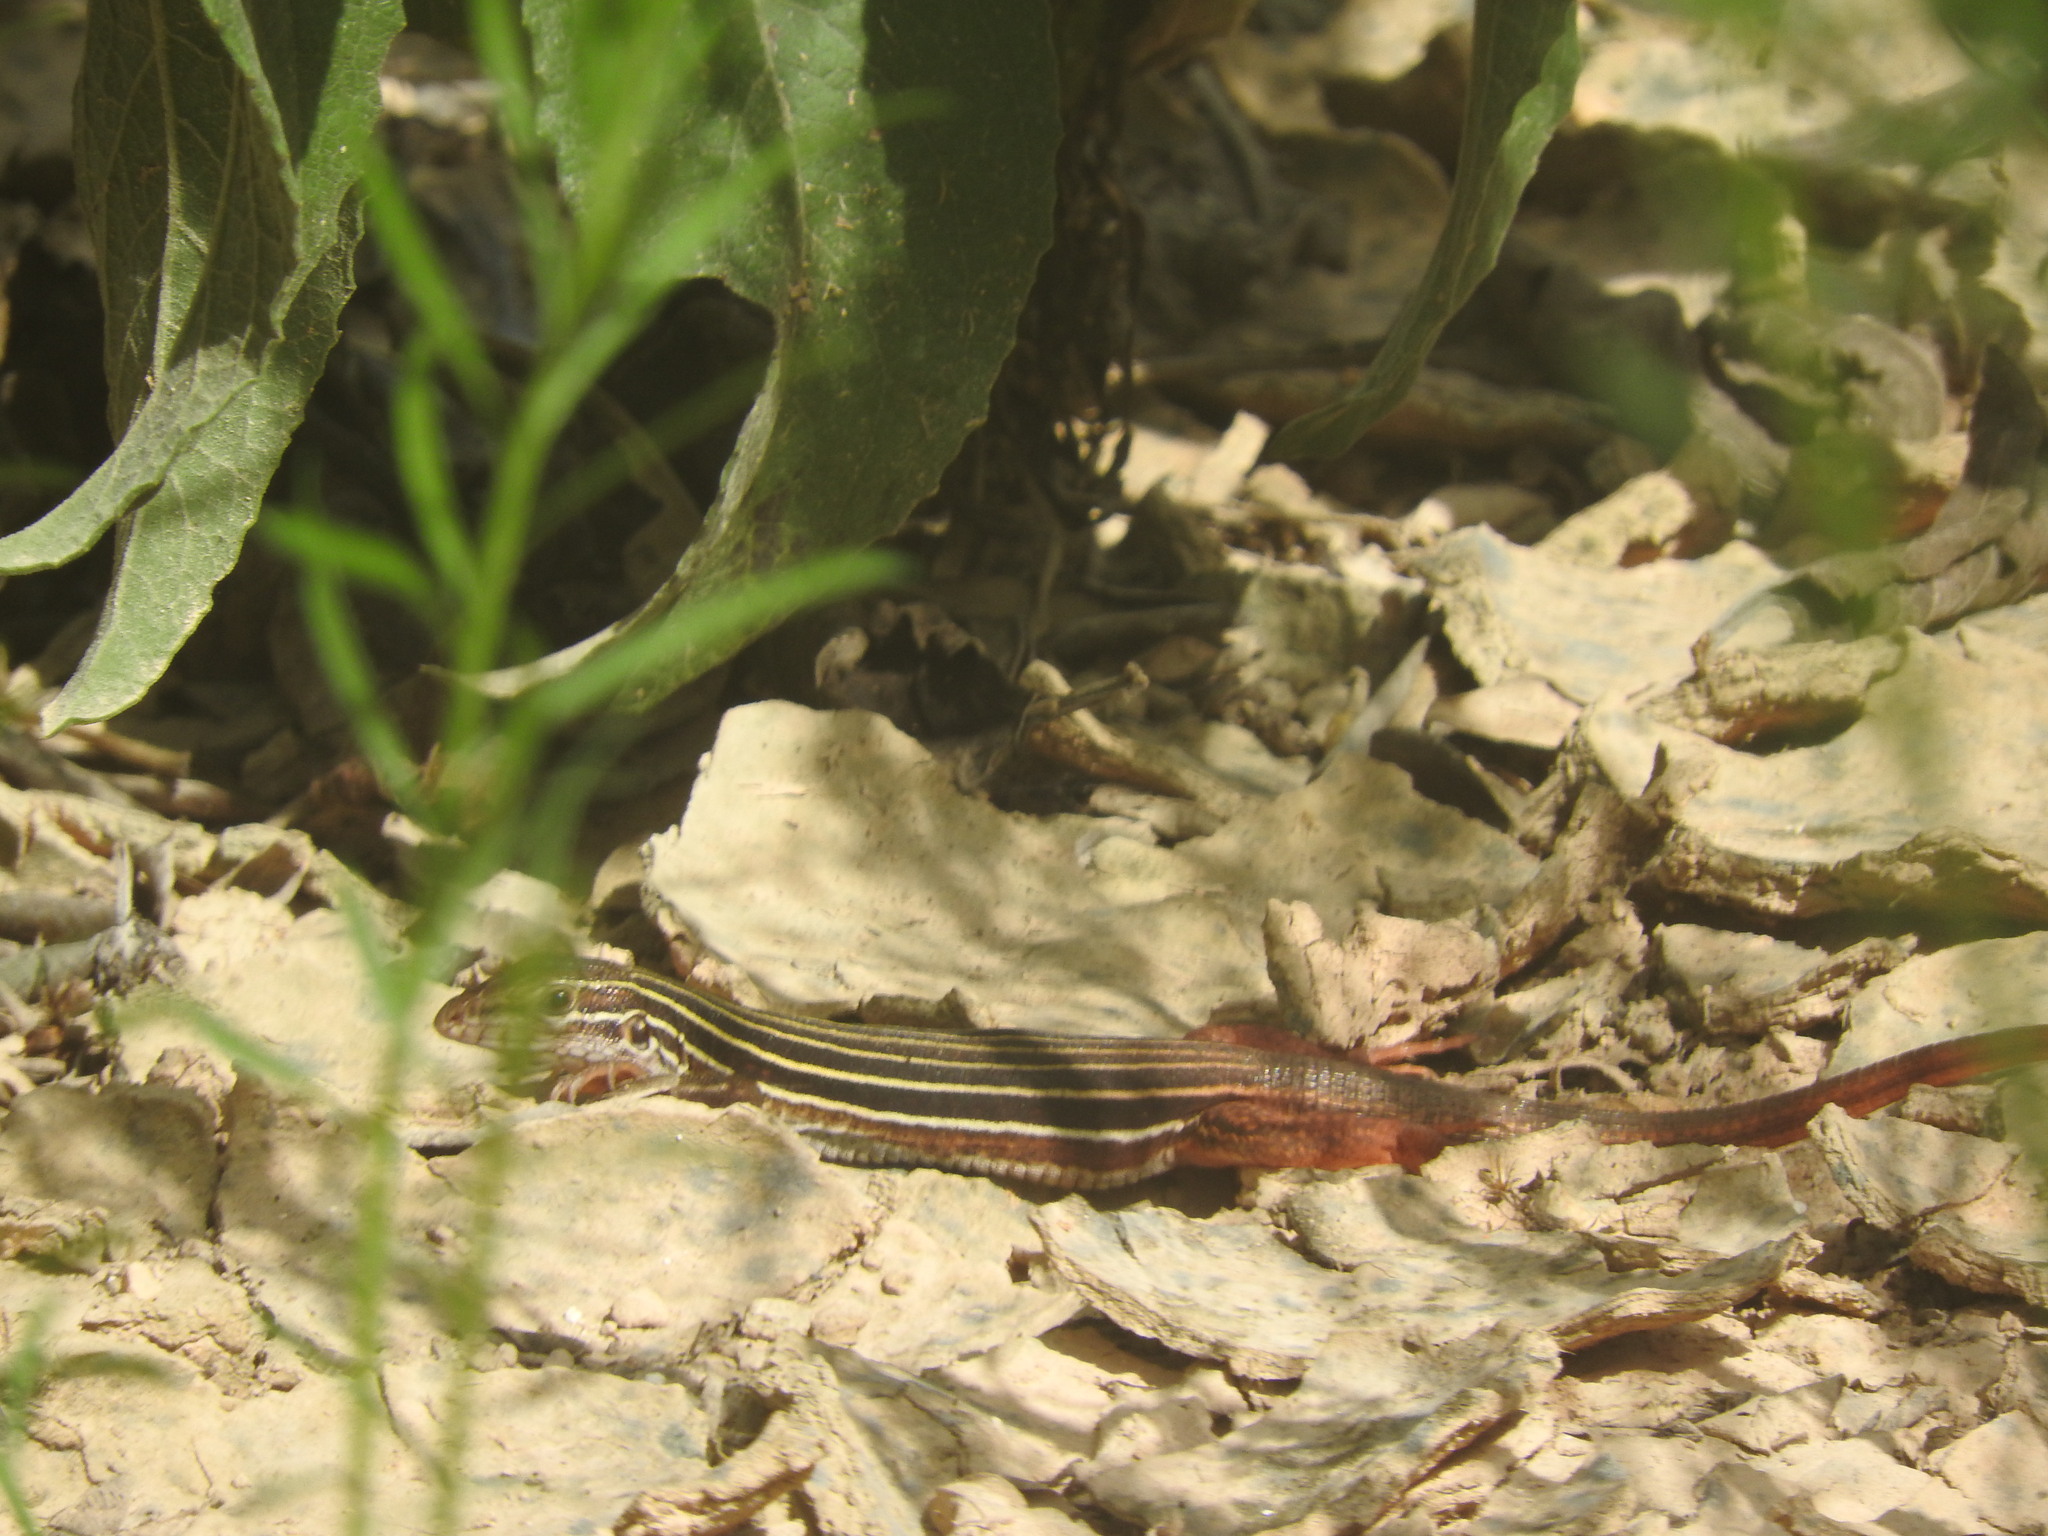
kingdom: Animalia
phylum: Chordata
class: Squamata
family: Teiidae
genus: Aspidoscelis
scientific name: Aspidoscelis angusticeps
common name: Yucatan whiptail
